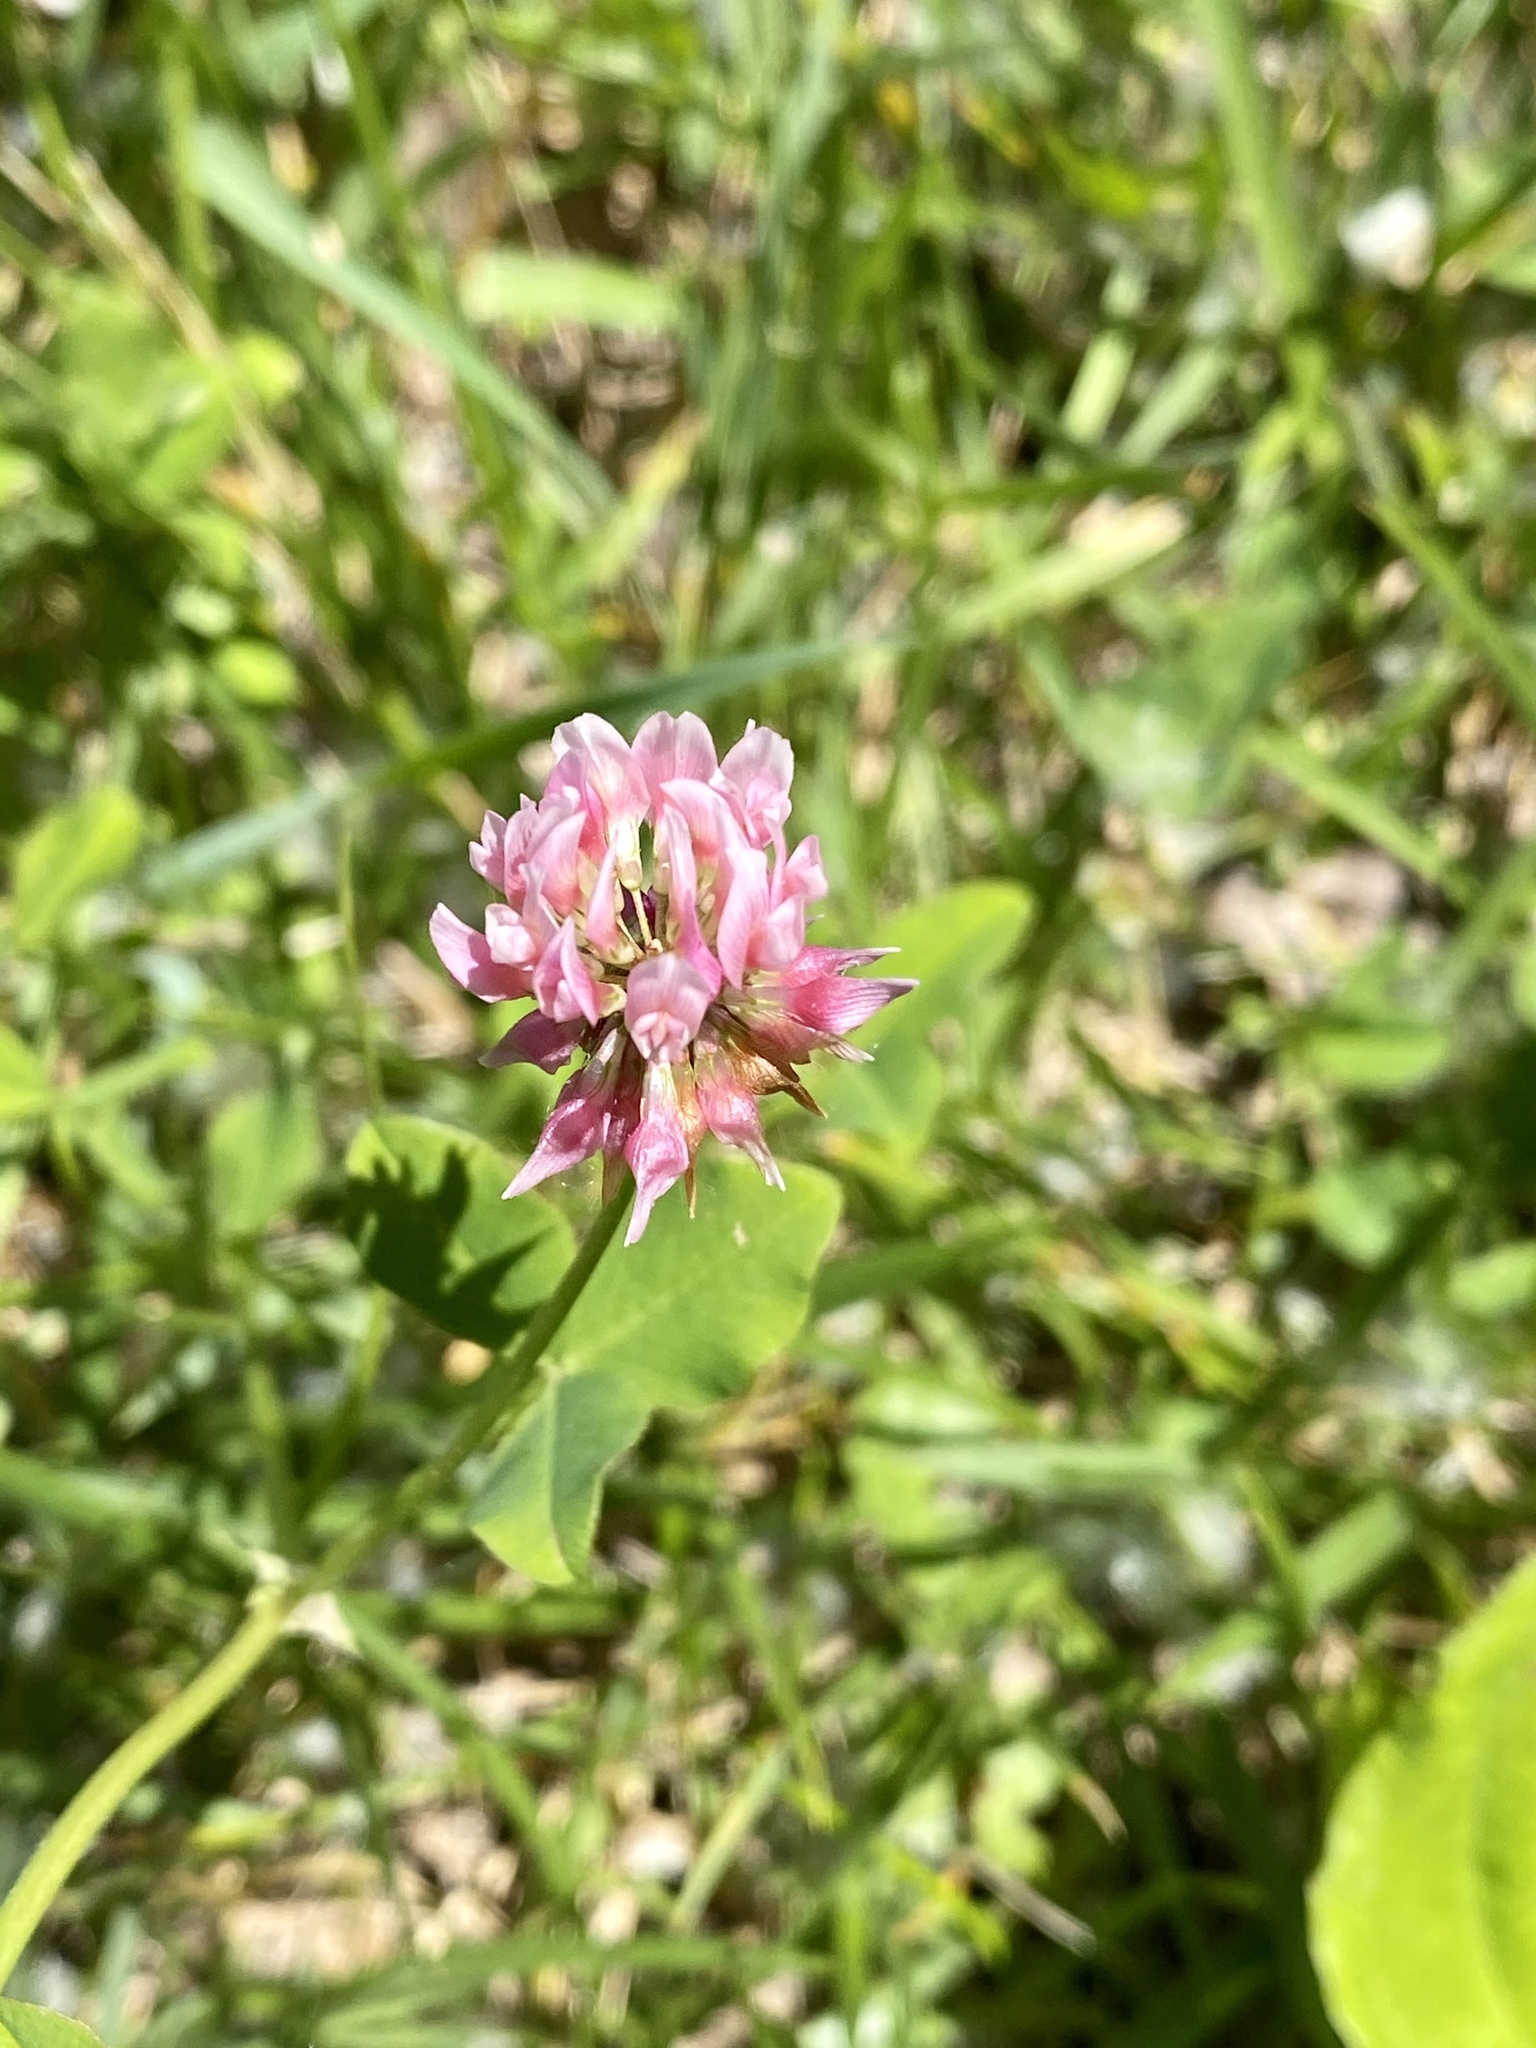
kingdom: Plantae
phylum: Tracheophyta
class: Magnoliopsida
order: Fabales
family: Fabaceae
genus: Trifolium
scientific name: Trifolium hybridum
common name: Alsike clover
